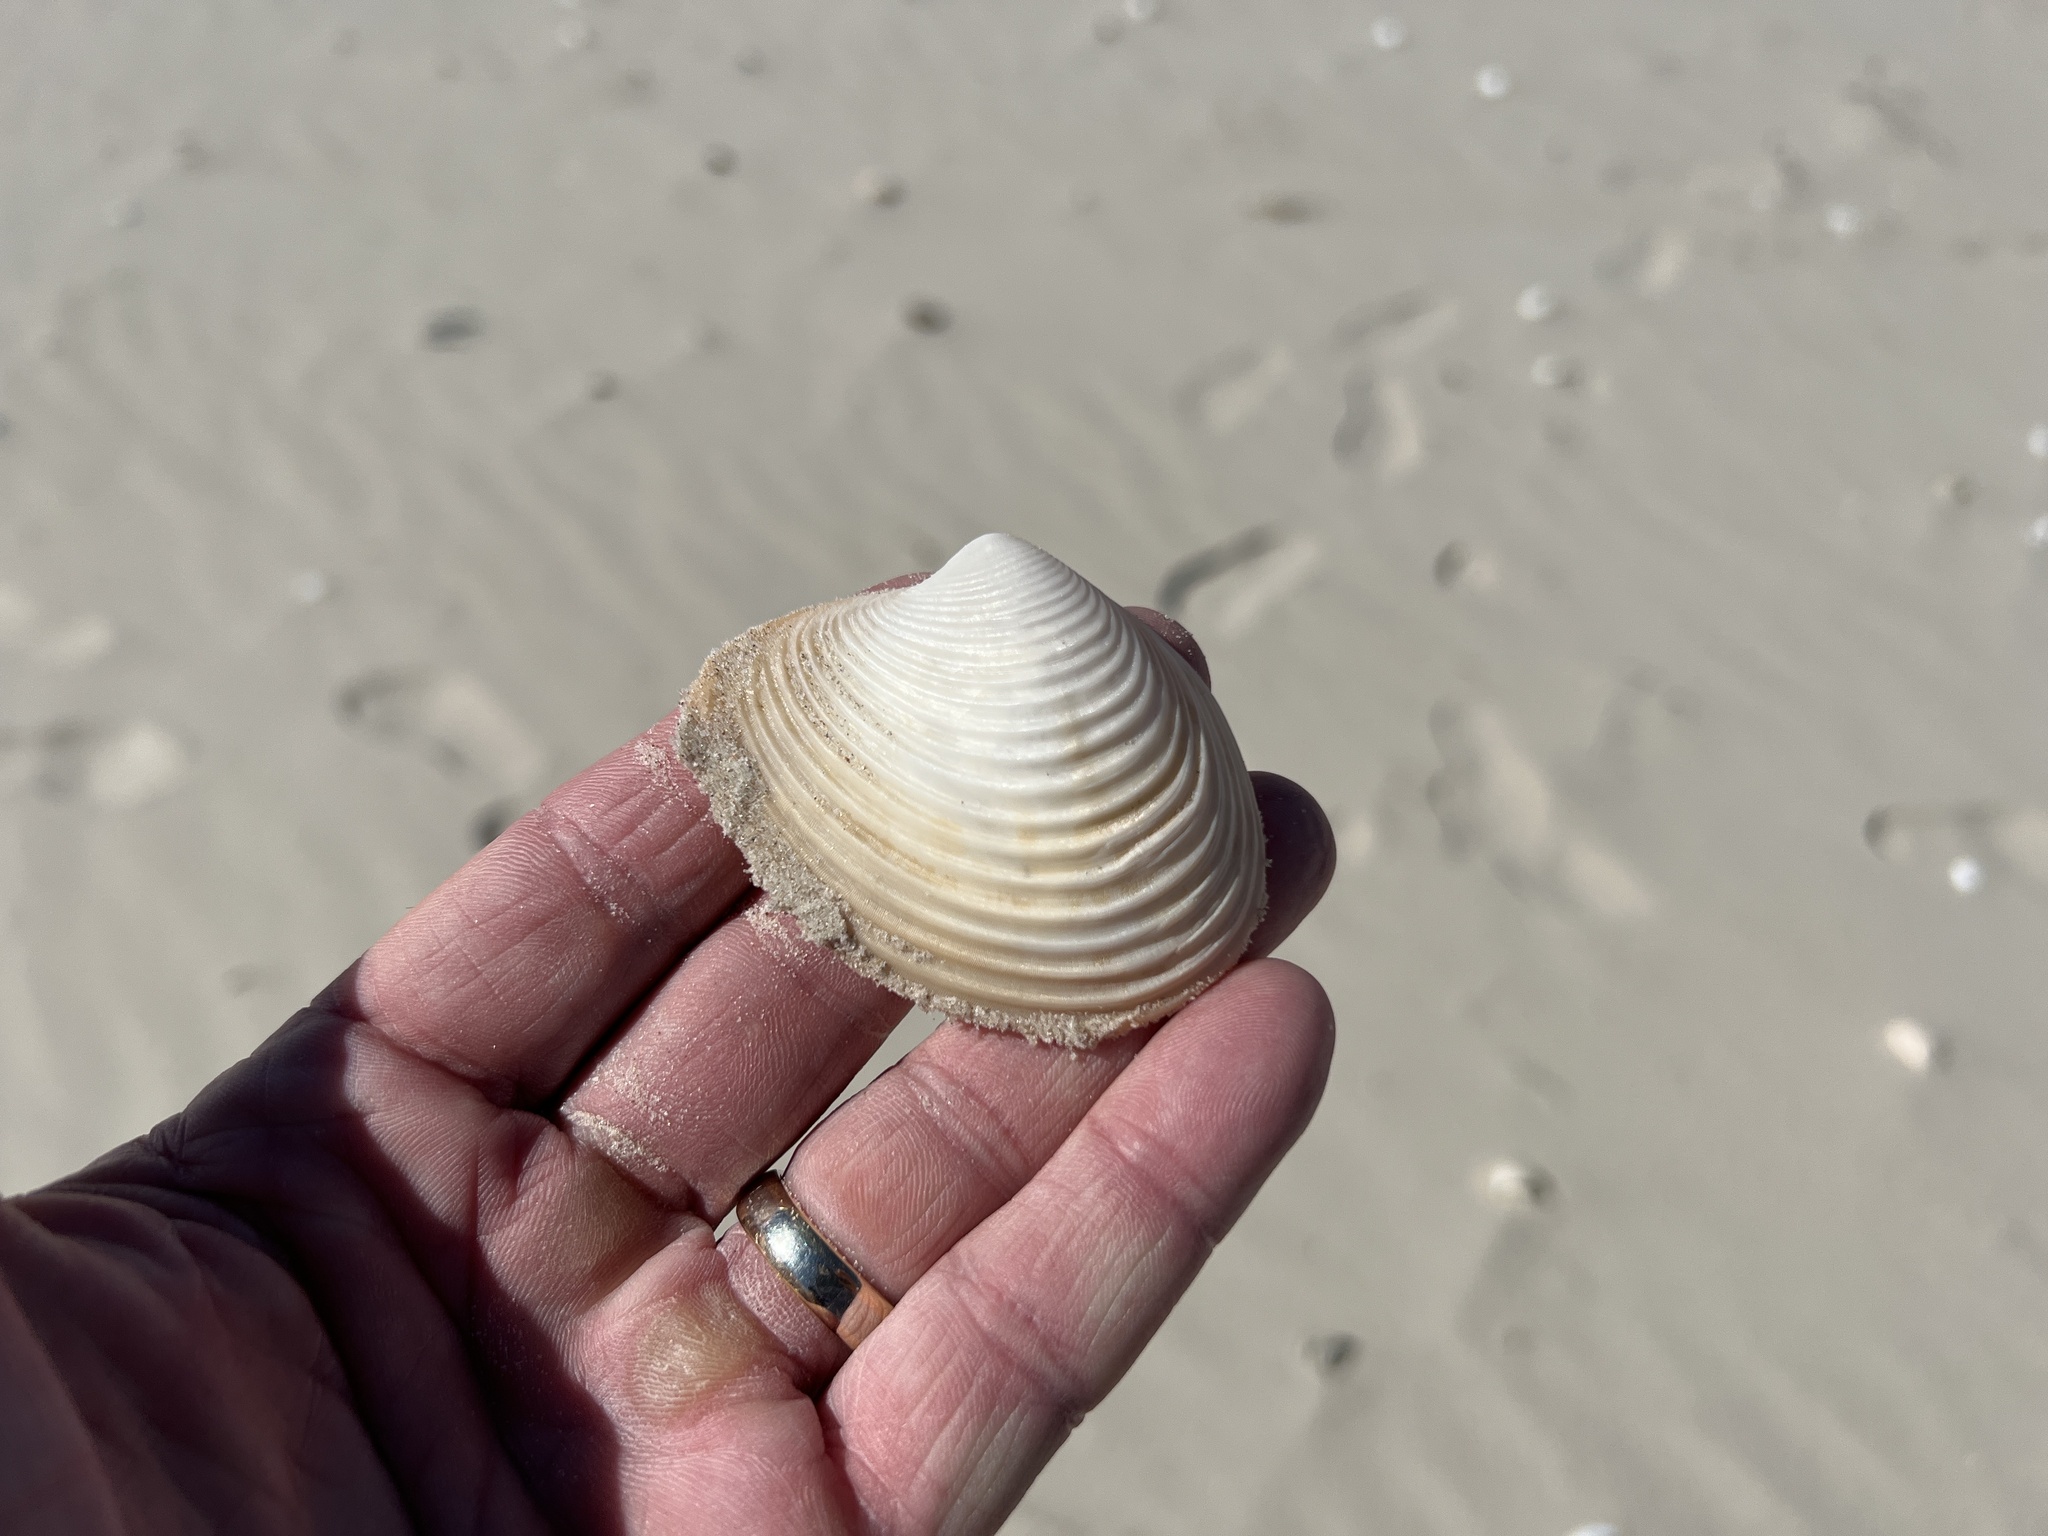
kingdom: Animalia
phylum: Mollusca
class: Bivalvia
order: Venerida
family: Anatinellidae
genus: Raeta
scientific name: Raeta plicatella
